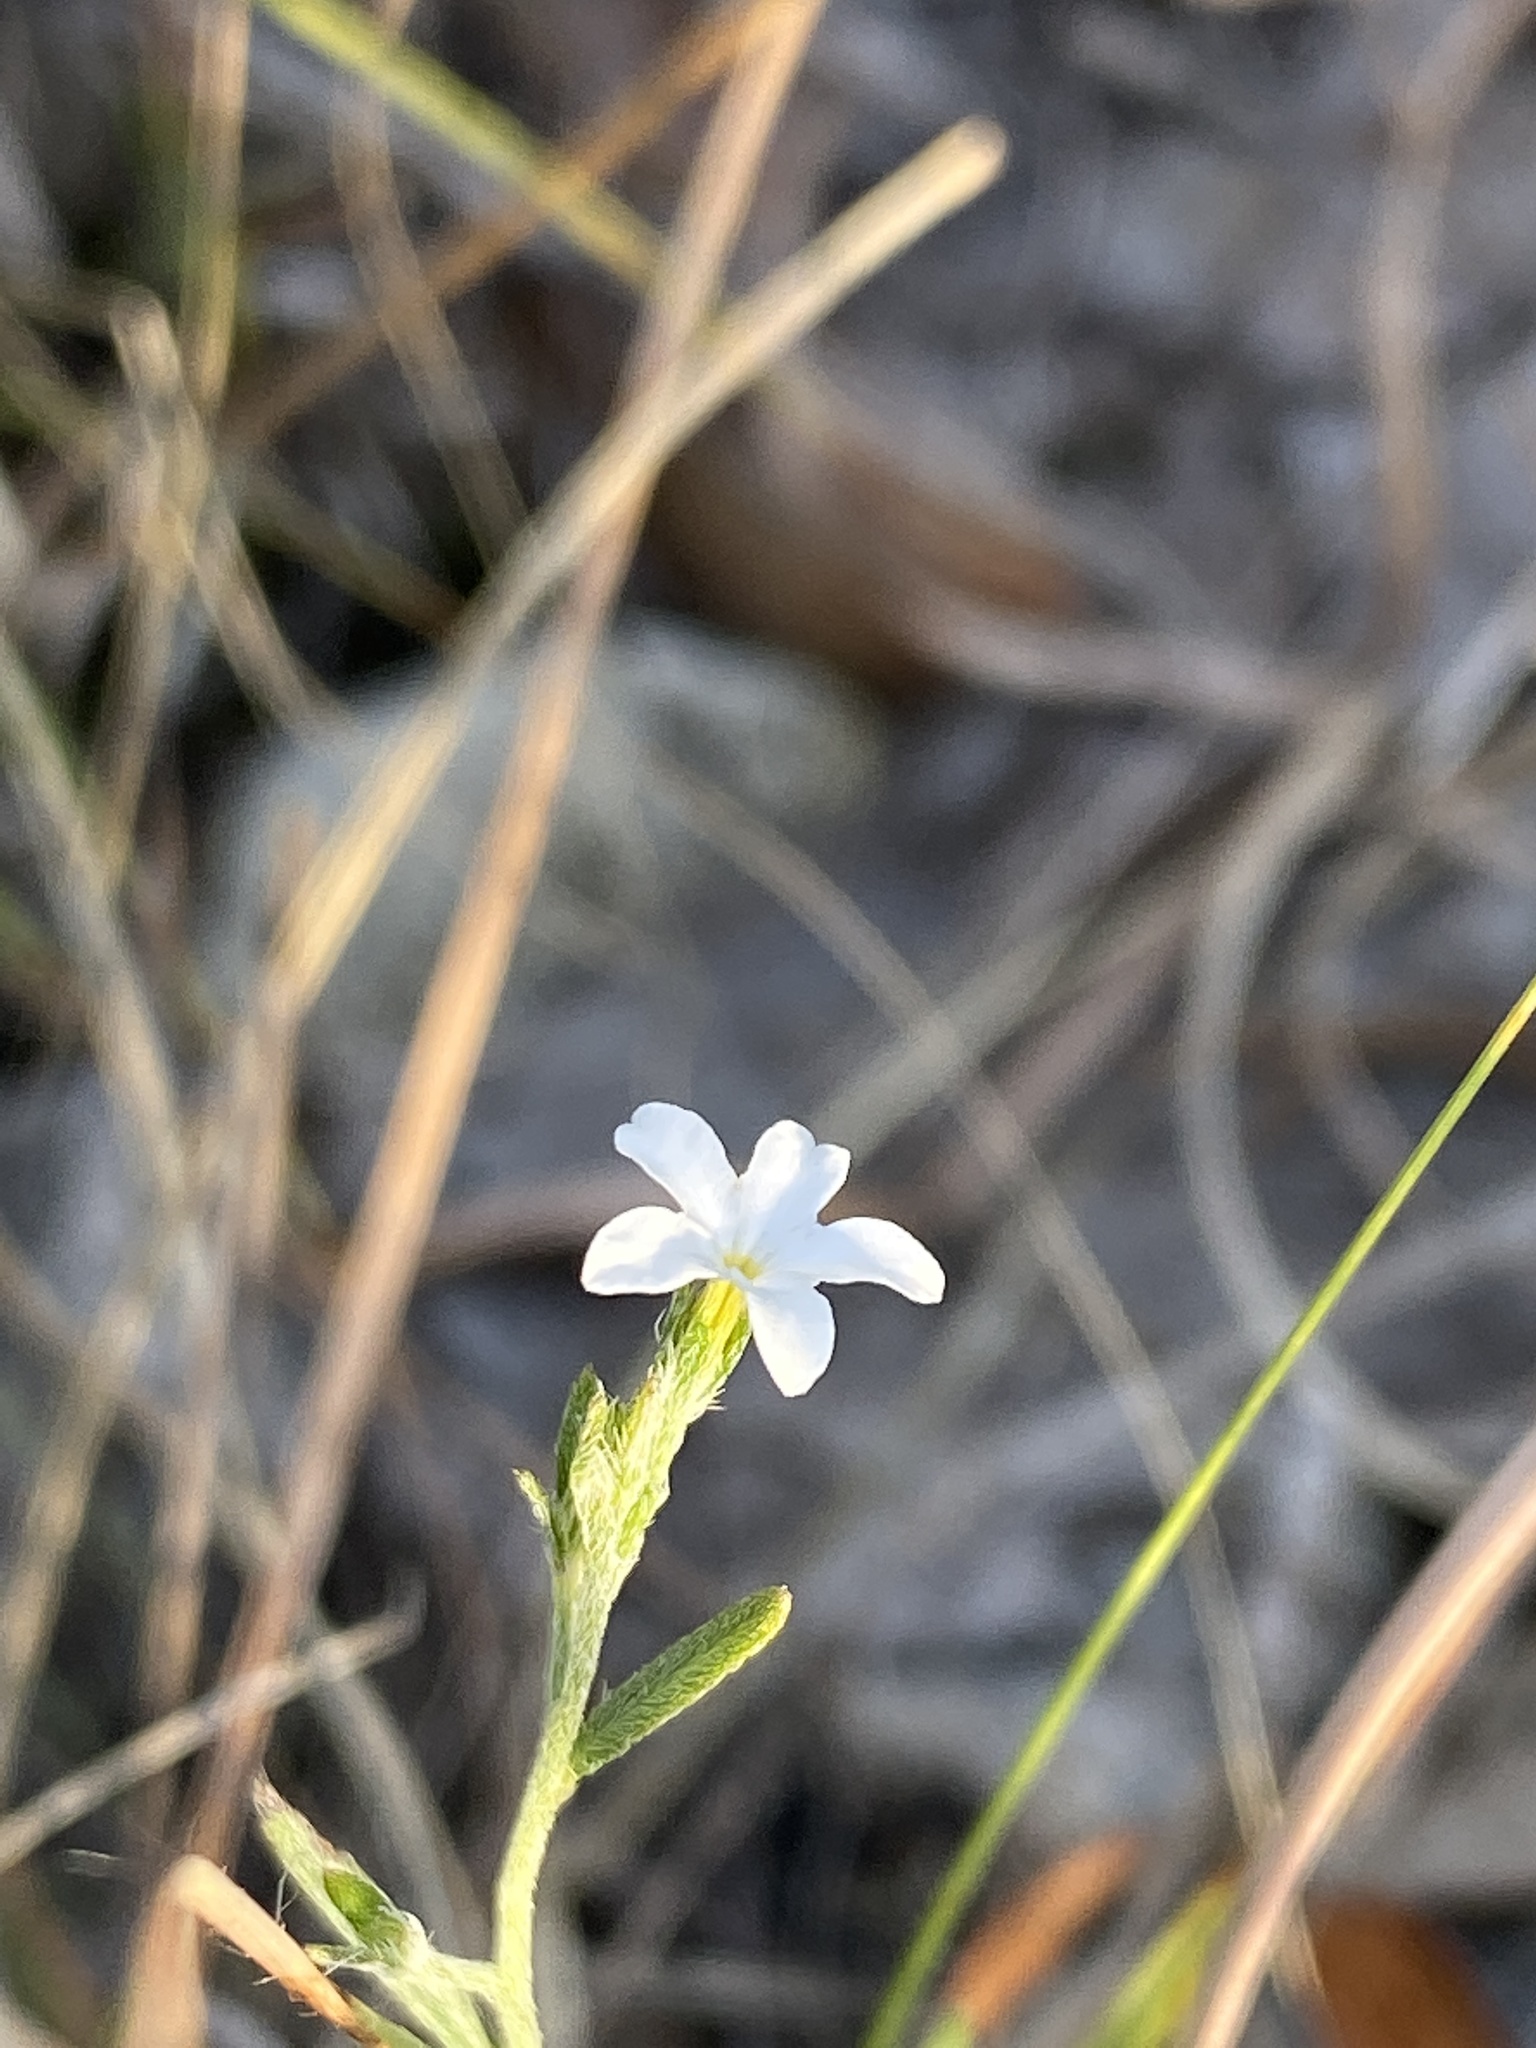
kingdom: Plantae
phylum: Tracheophyta
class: Magnoliopsida
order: Boraginales
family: Heliotropiaceae
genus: Euploca
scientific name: Euploca tenella
